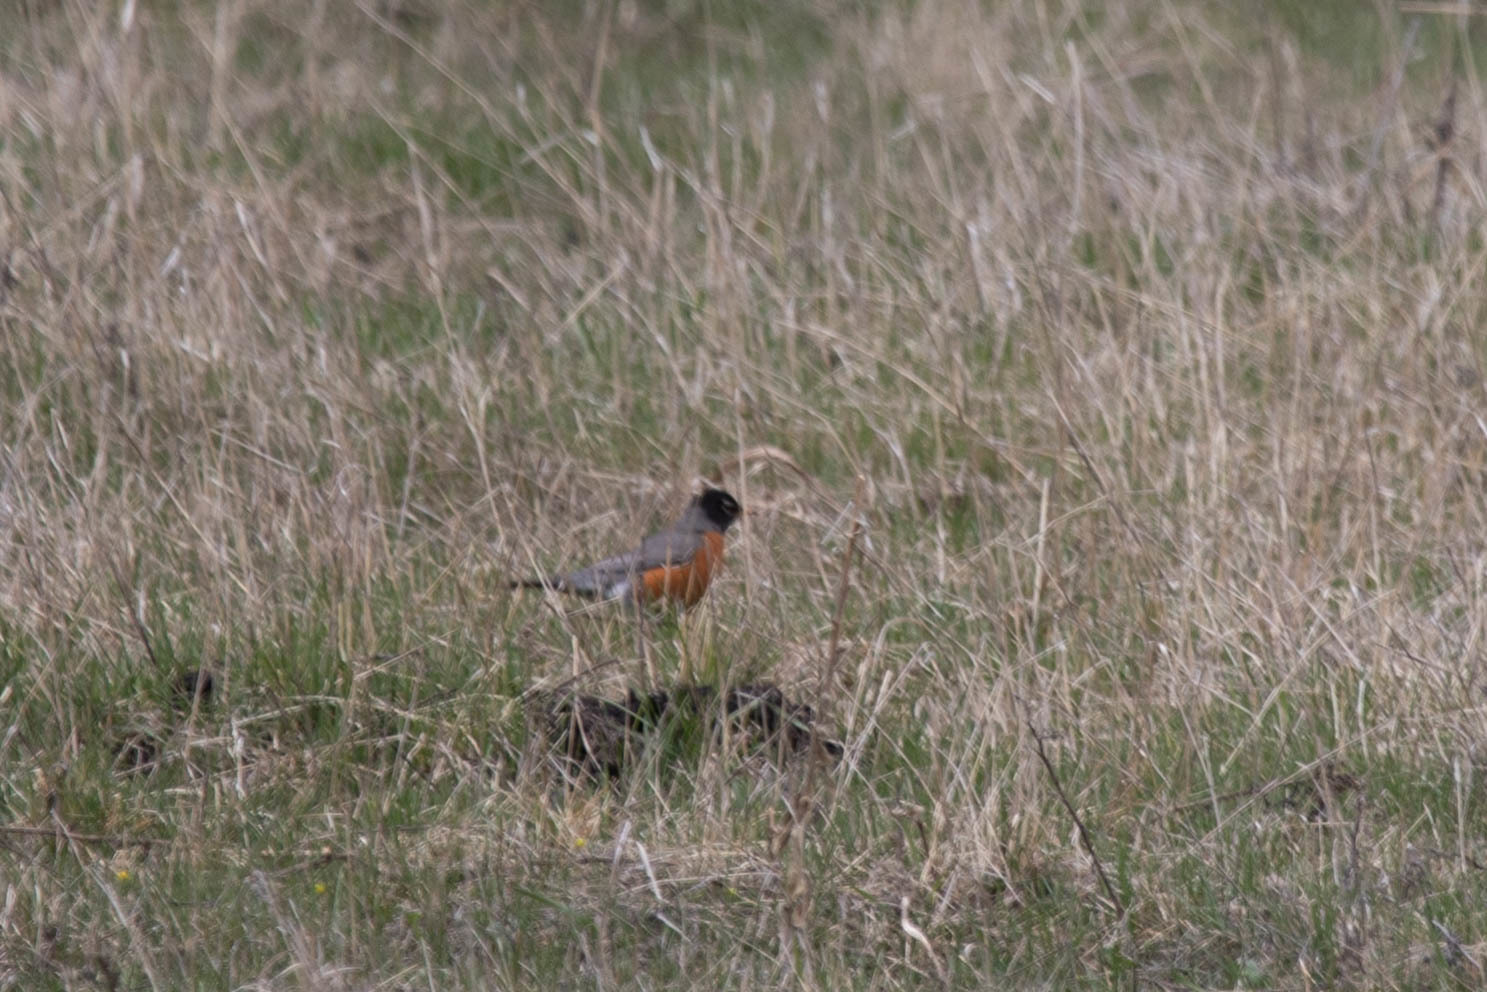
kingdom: Animalia
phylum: Chordata
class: Aves
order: Passeriformes
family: Turdidae
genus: Turdus
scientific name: Turdus migratorius
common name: American robin
